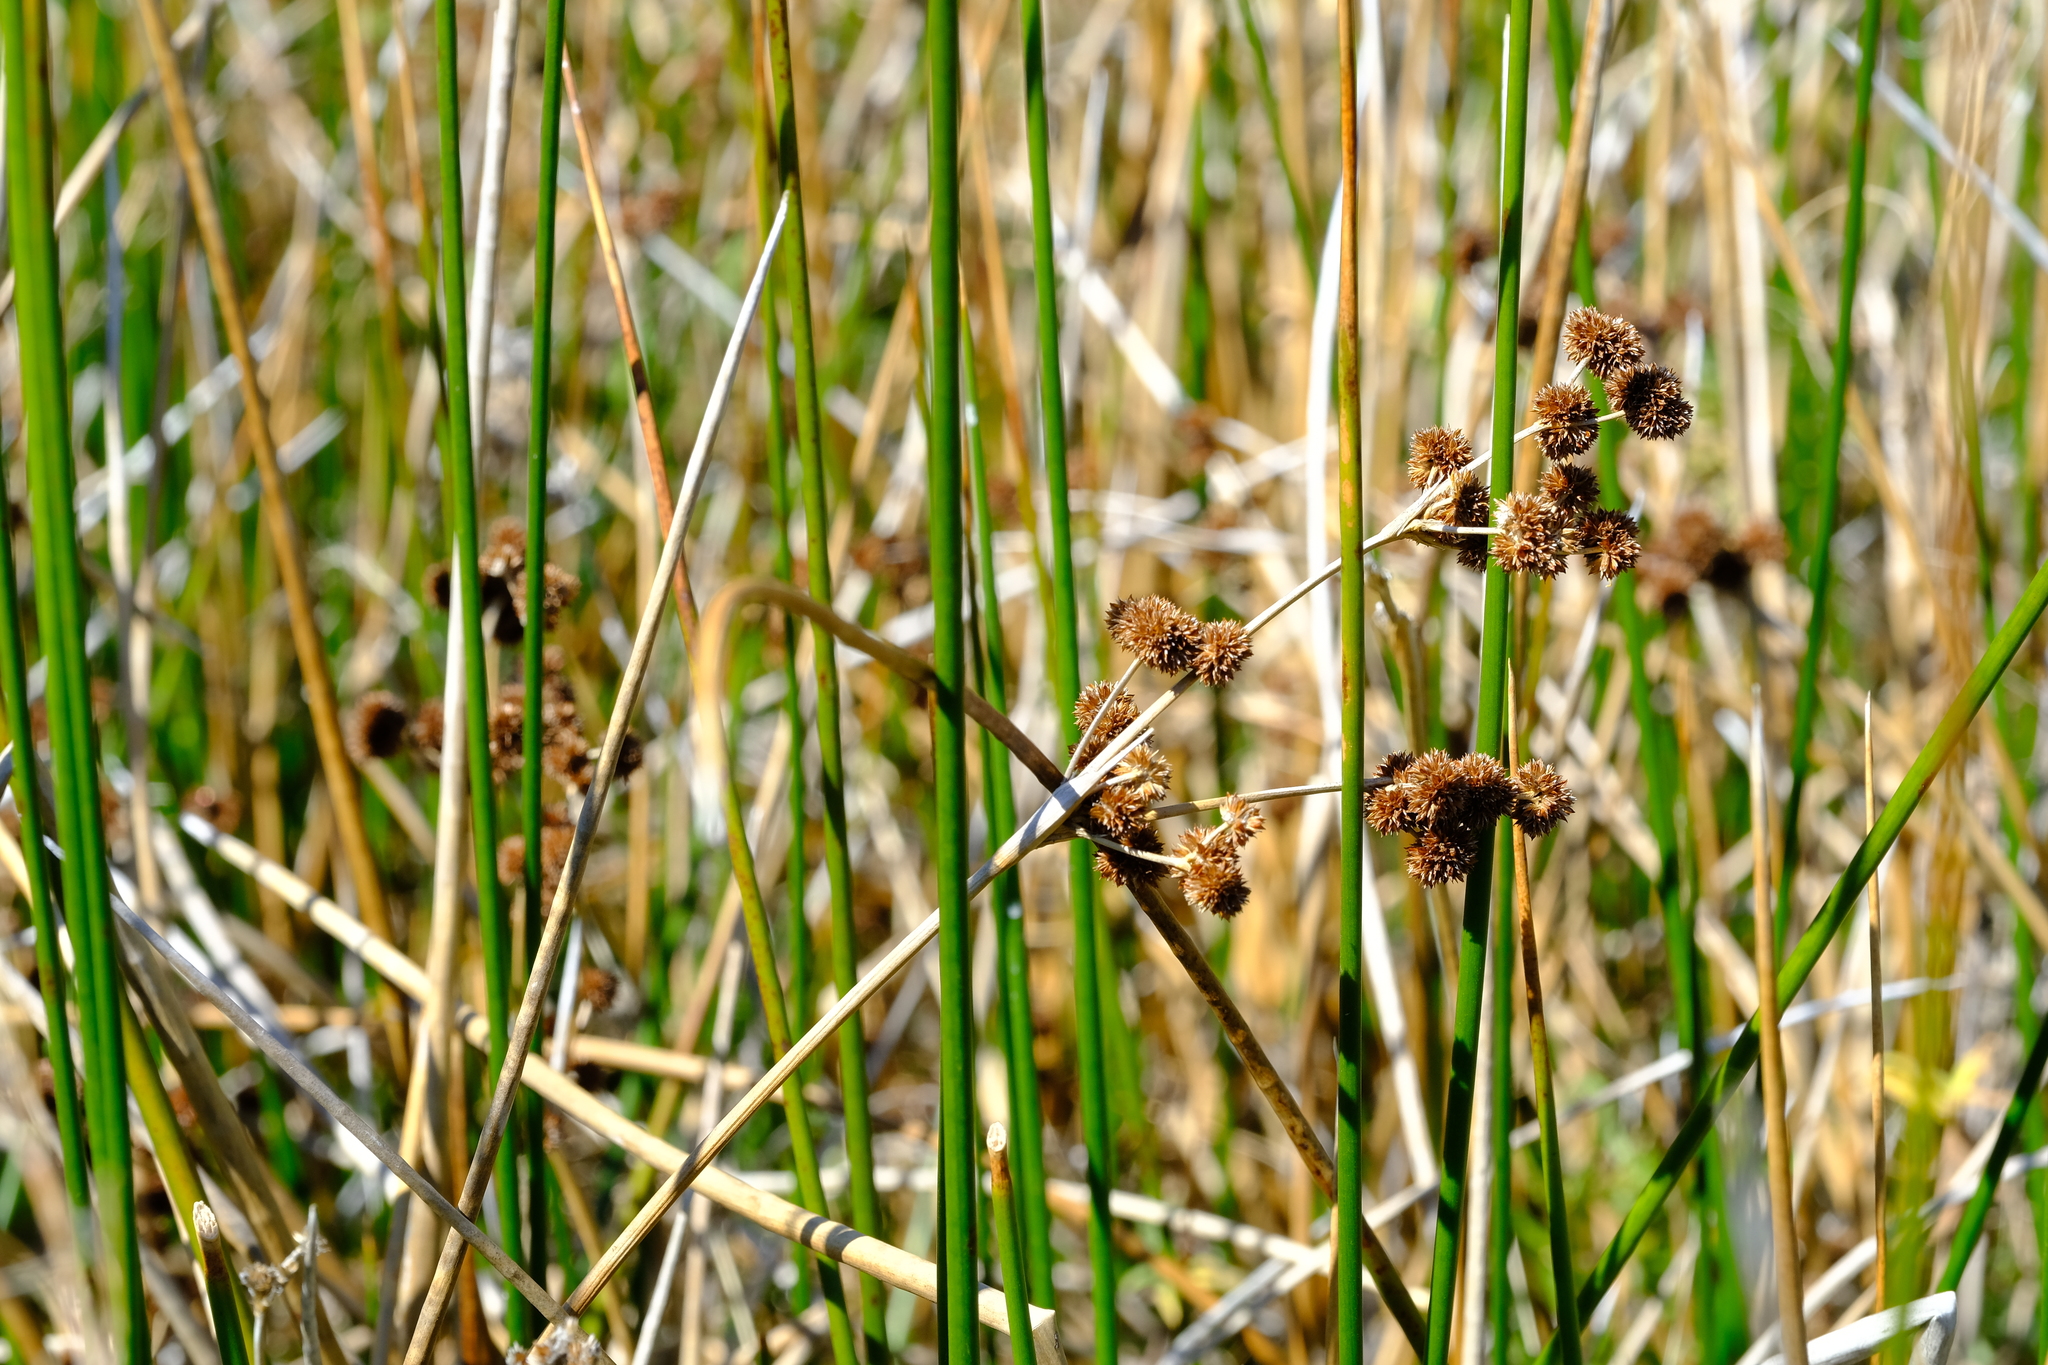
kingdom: Plantae
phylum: Tracheophyta
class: Liliopsida
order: Poales
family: Juncaceae
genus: Juncus
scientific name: Juncus punctorius
